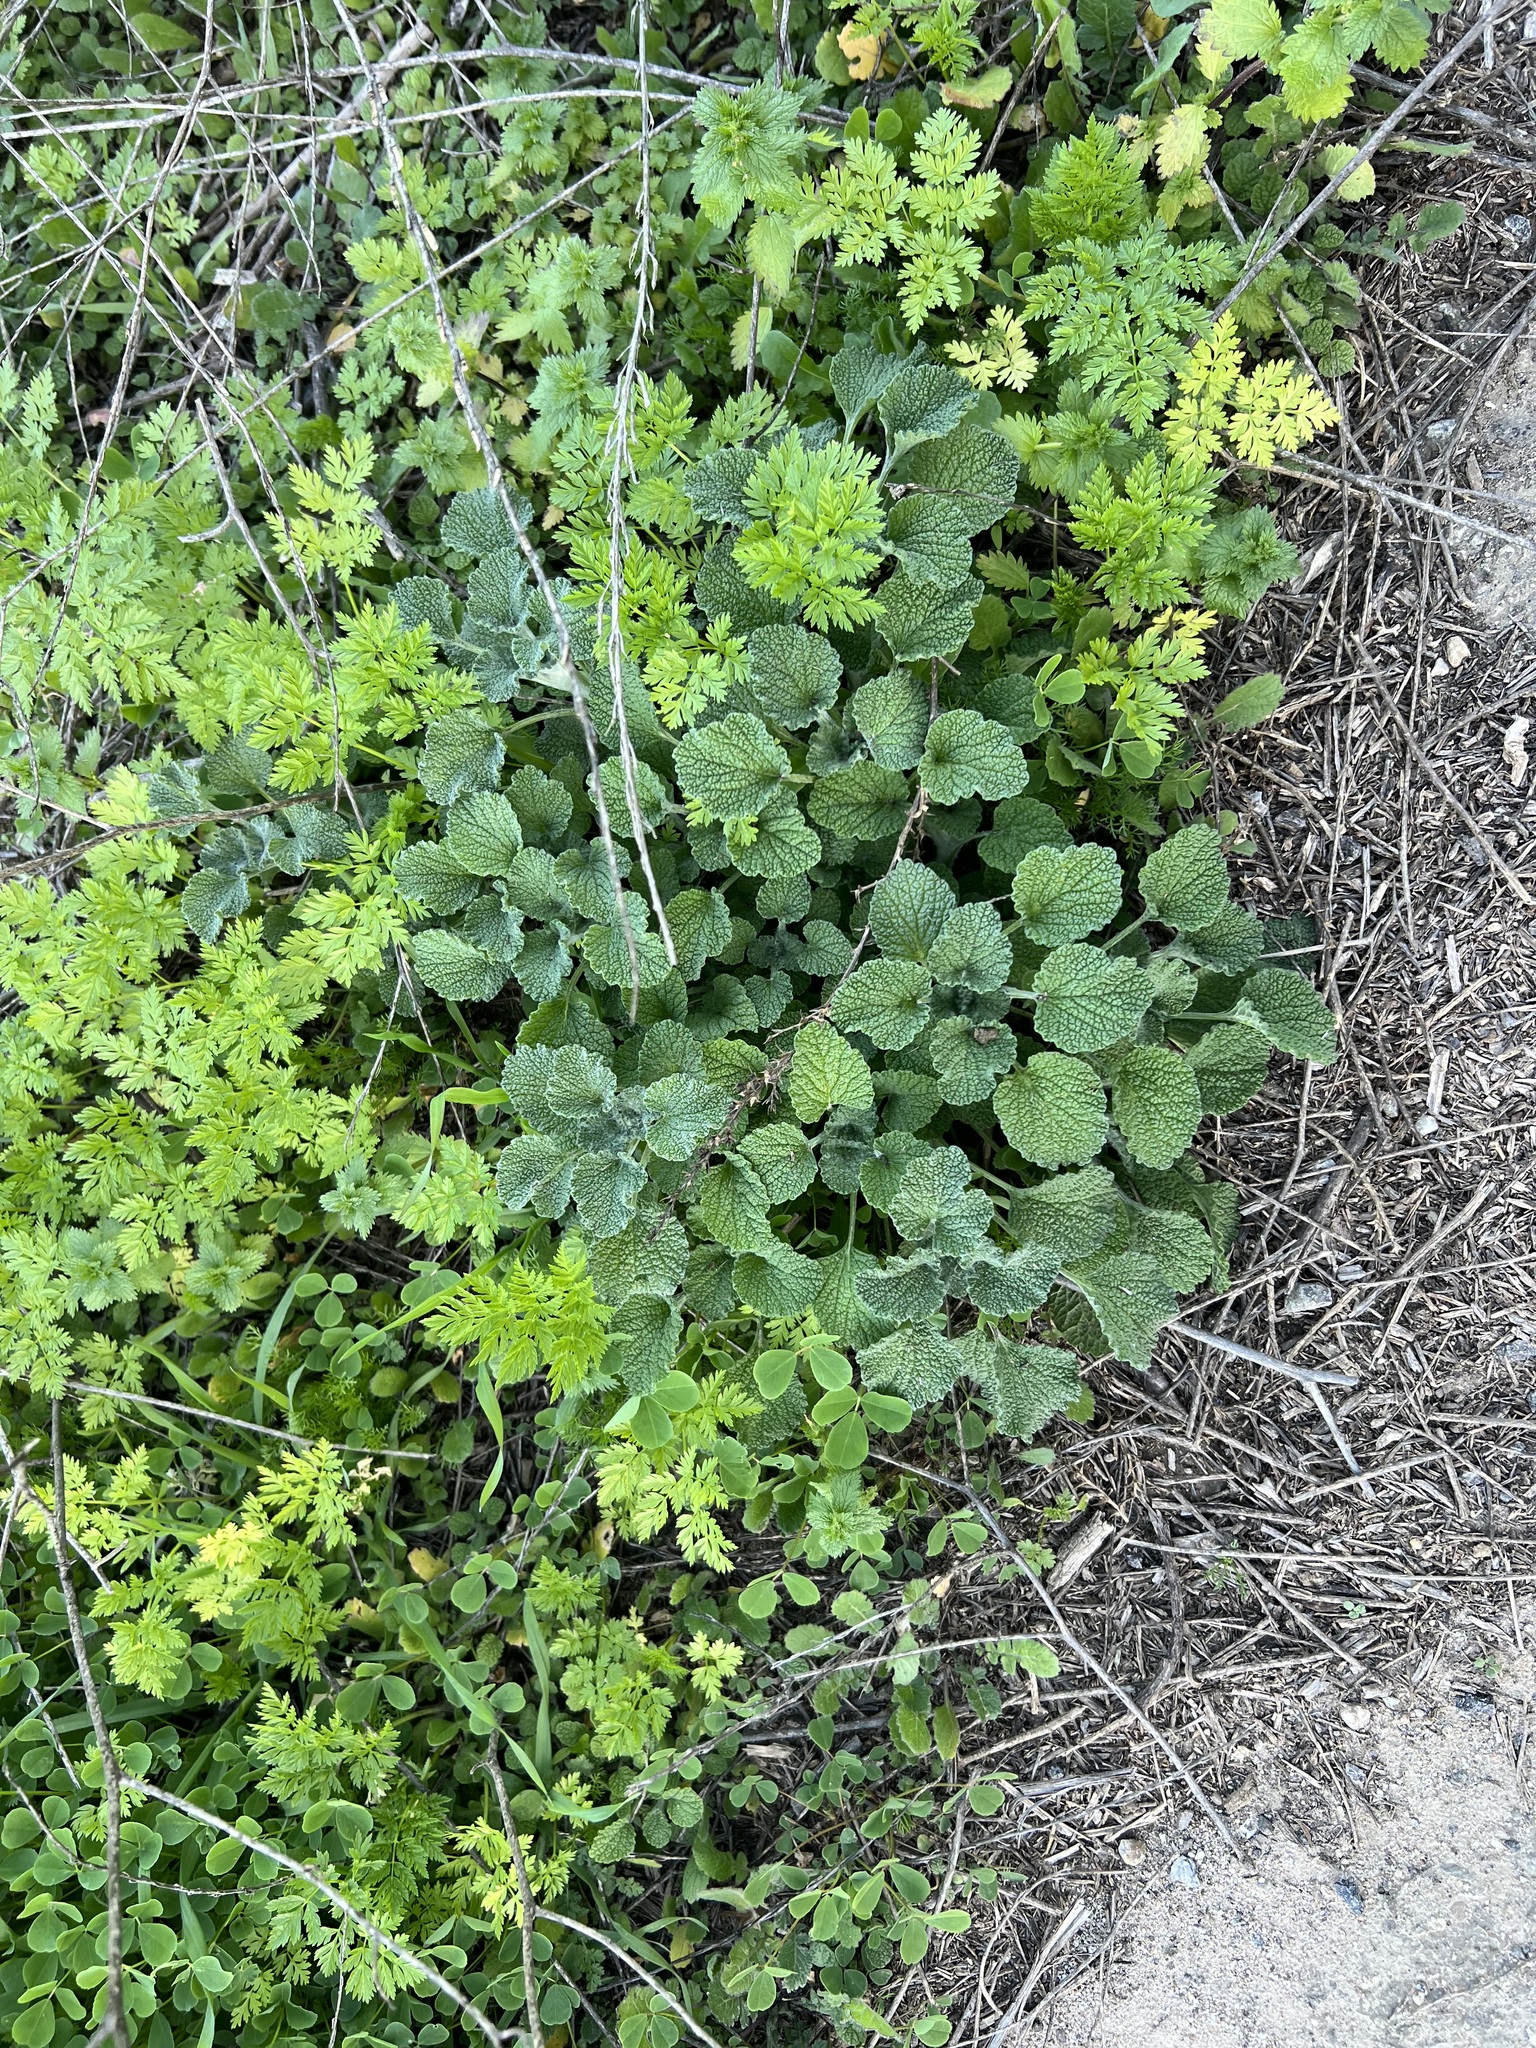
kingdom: Plantae
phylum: Tracheophyta
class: Magnoliopsida
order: Lamiales
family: Lamiaceae
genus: Marrubium
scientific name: Marrubium vulgare
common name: Horehound
